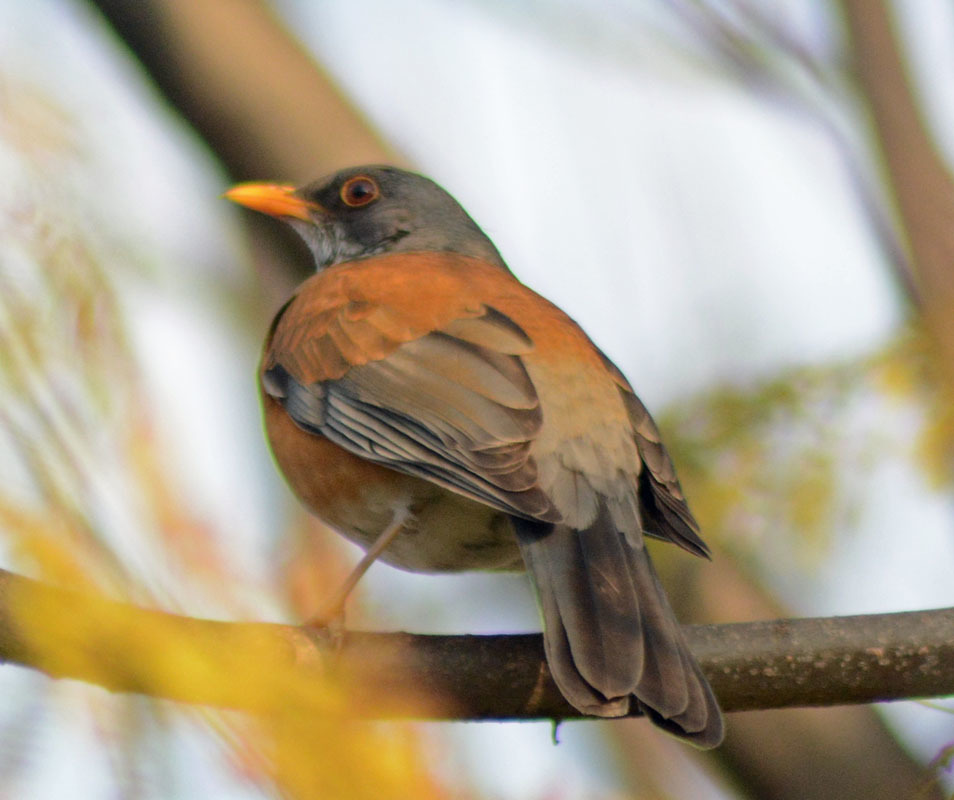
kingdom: Animalia
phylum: Chordata
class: Aves
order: Passeriformes
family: Turdidae
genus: Turdus
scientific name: Turdus rufopalliatus
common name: Rufous-backed robin
